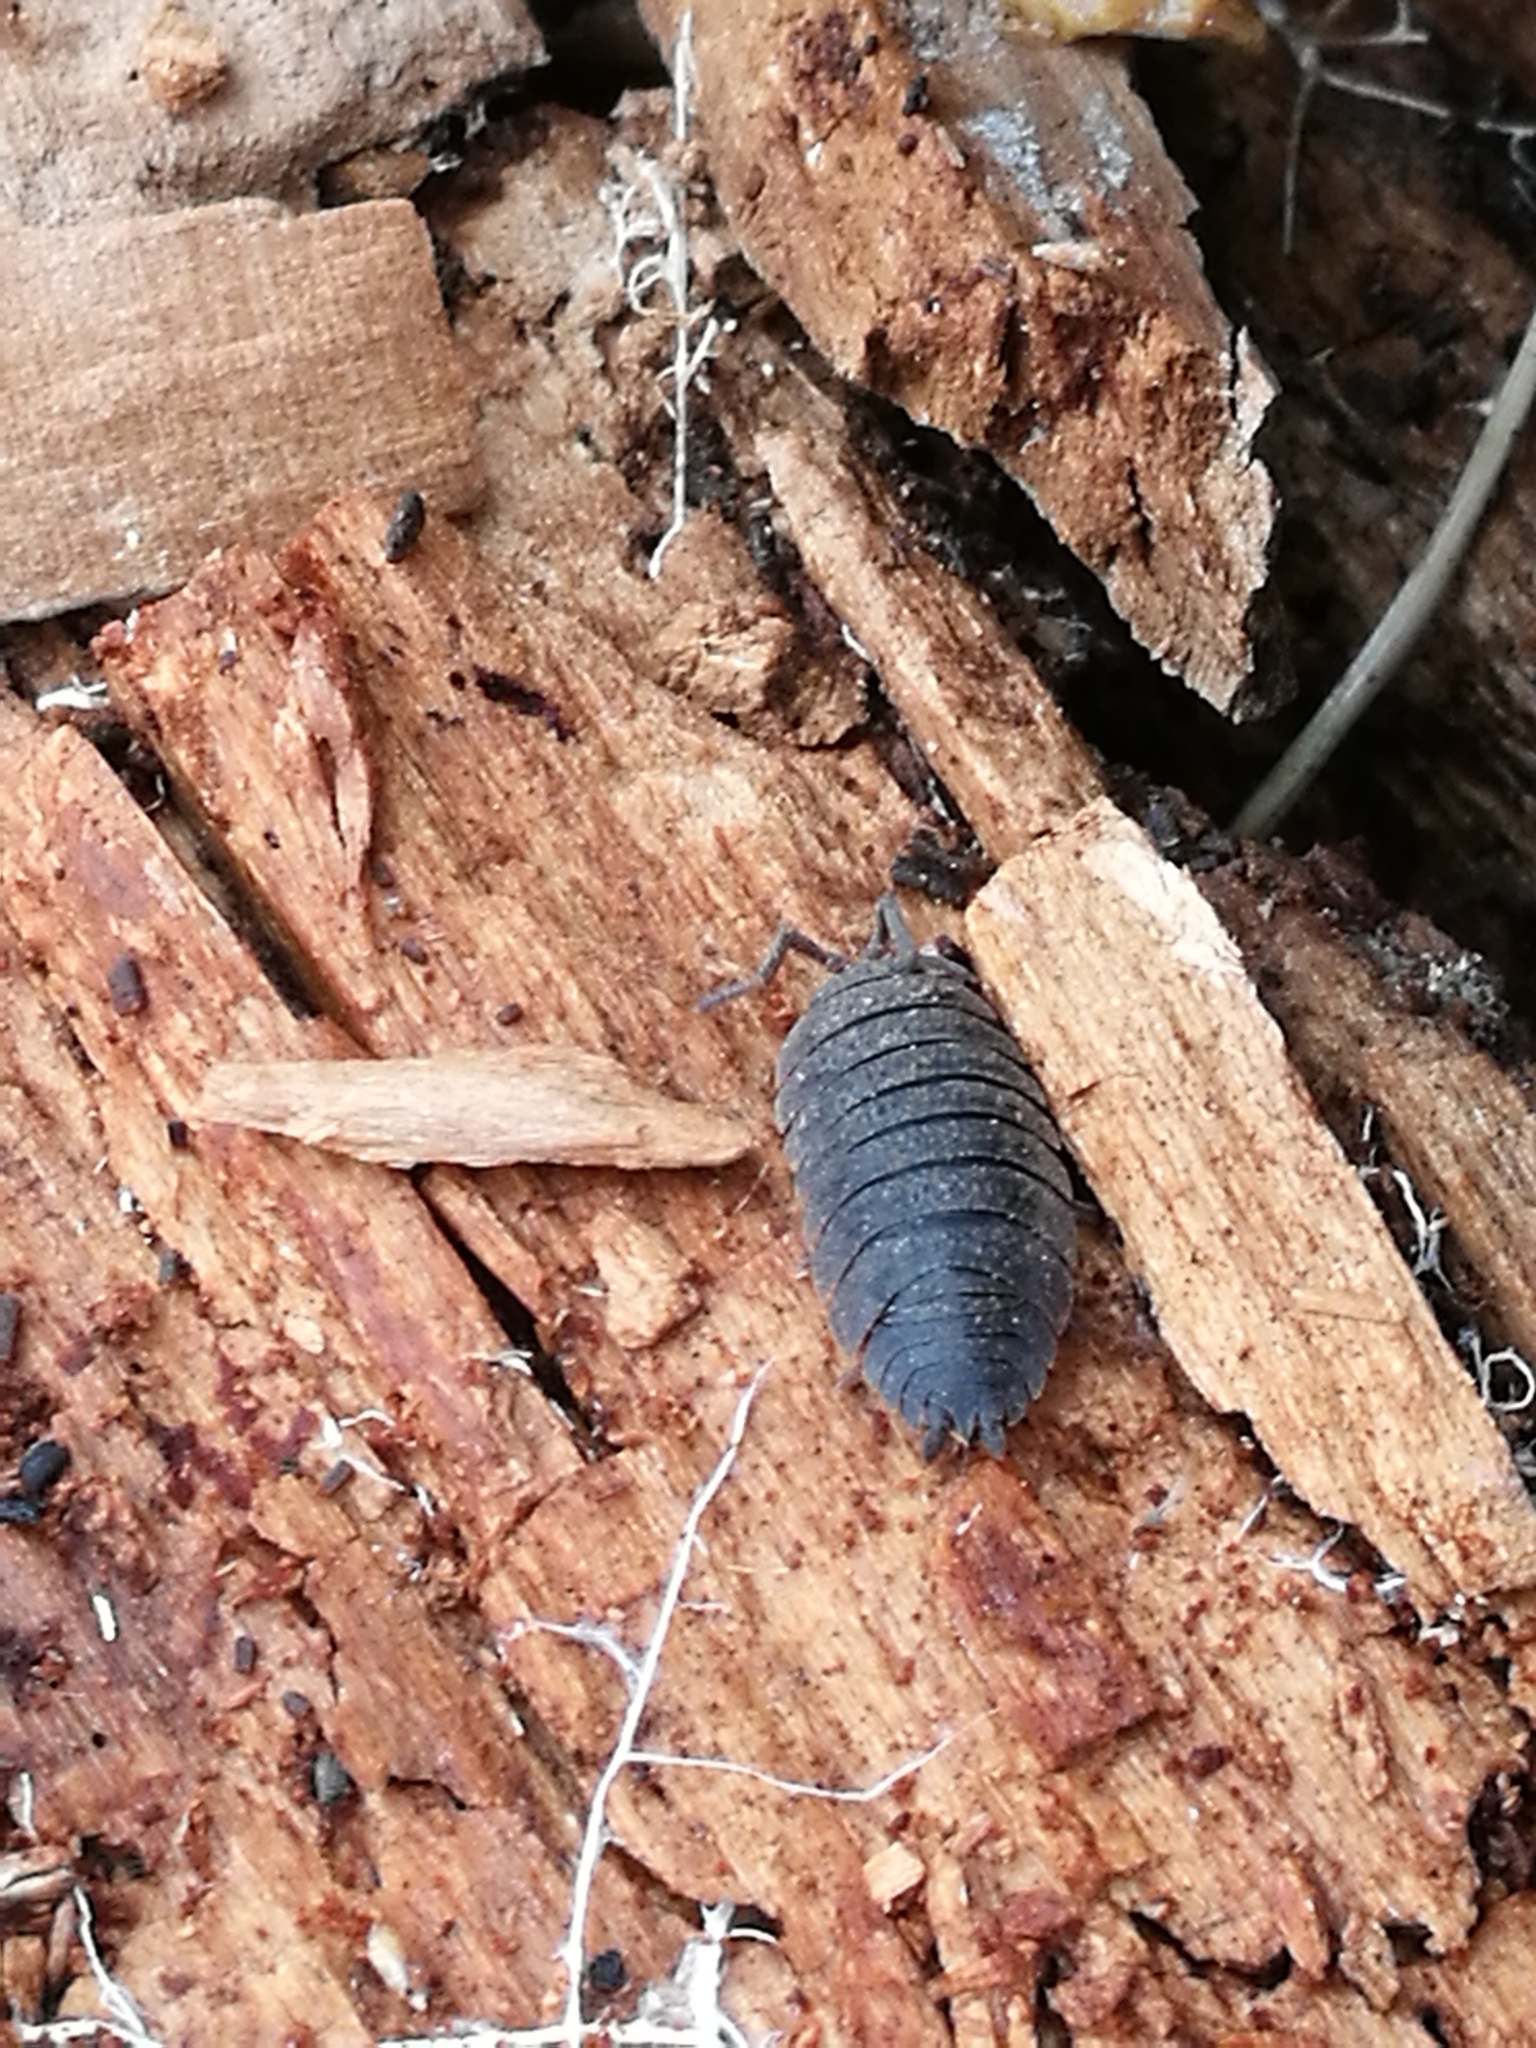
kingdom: Animalia
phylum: Arthropoda
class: Malacostraca
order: Isopoda
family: Porcellionidae
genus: Porcellio
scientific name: Porcellio scaber
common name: Common rough woodlouse
